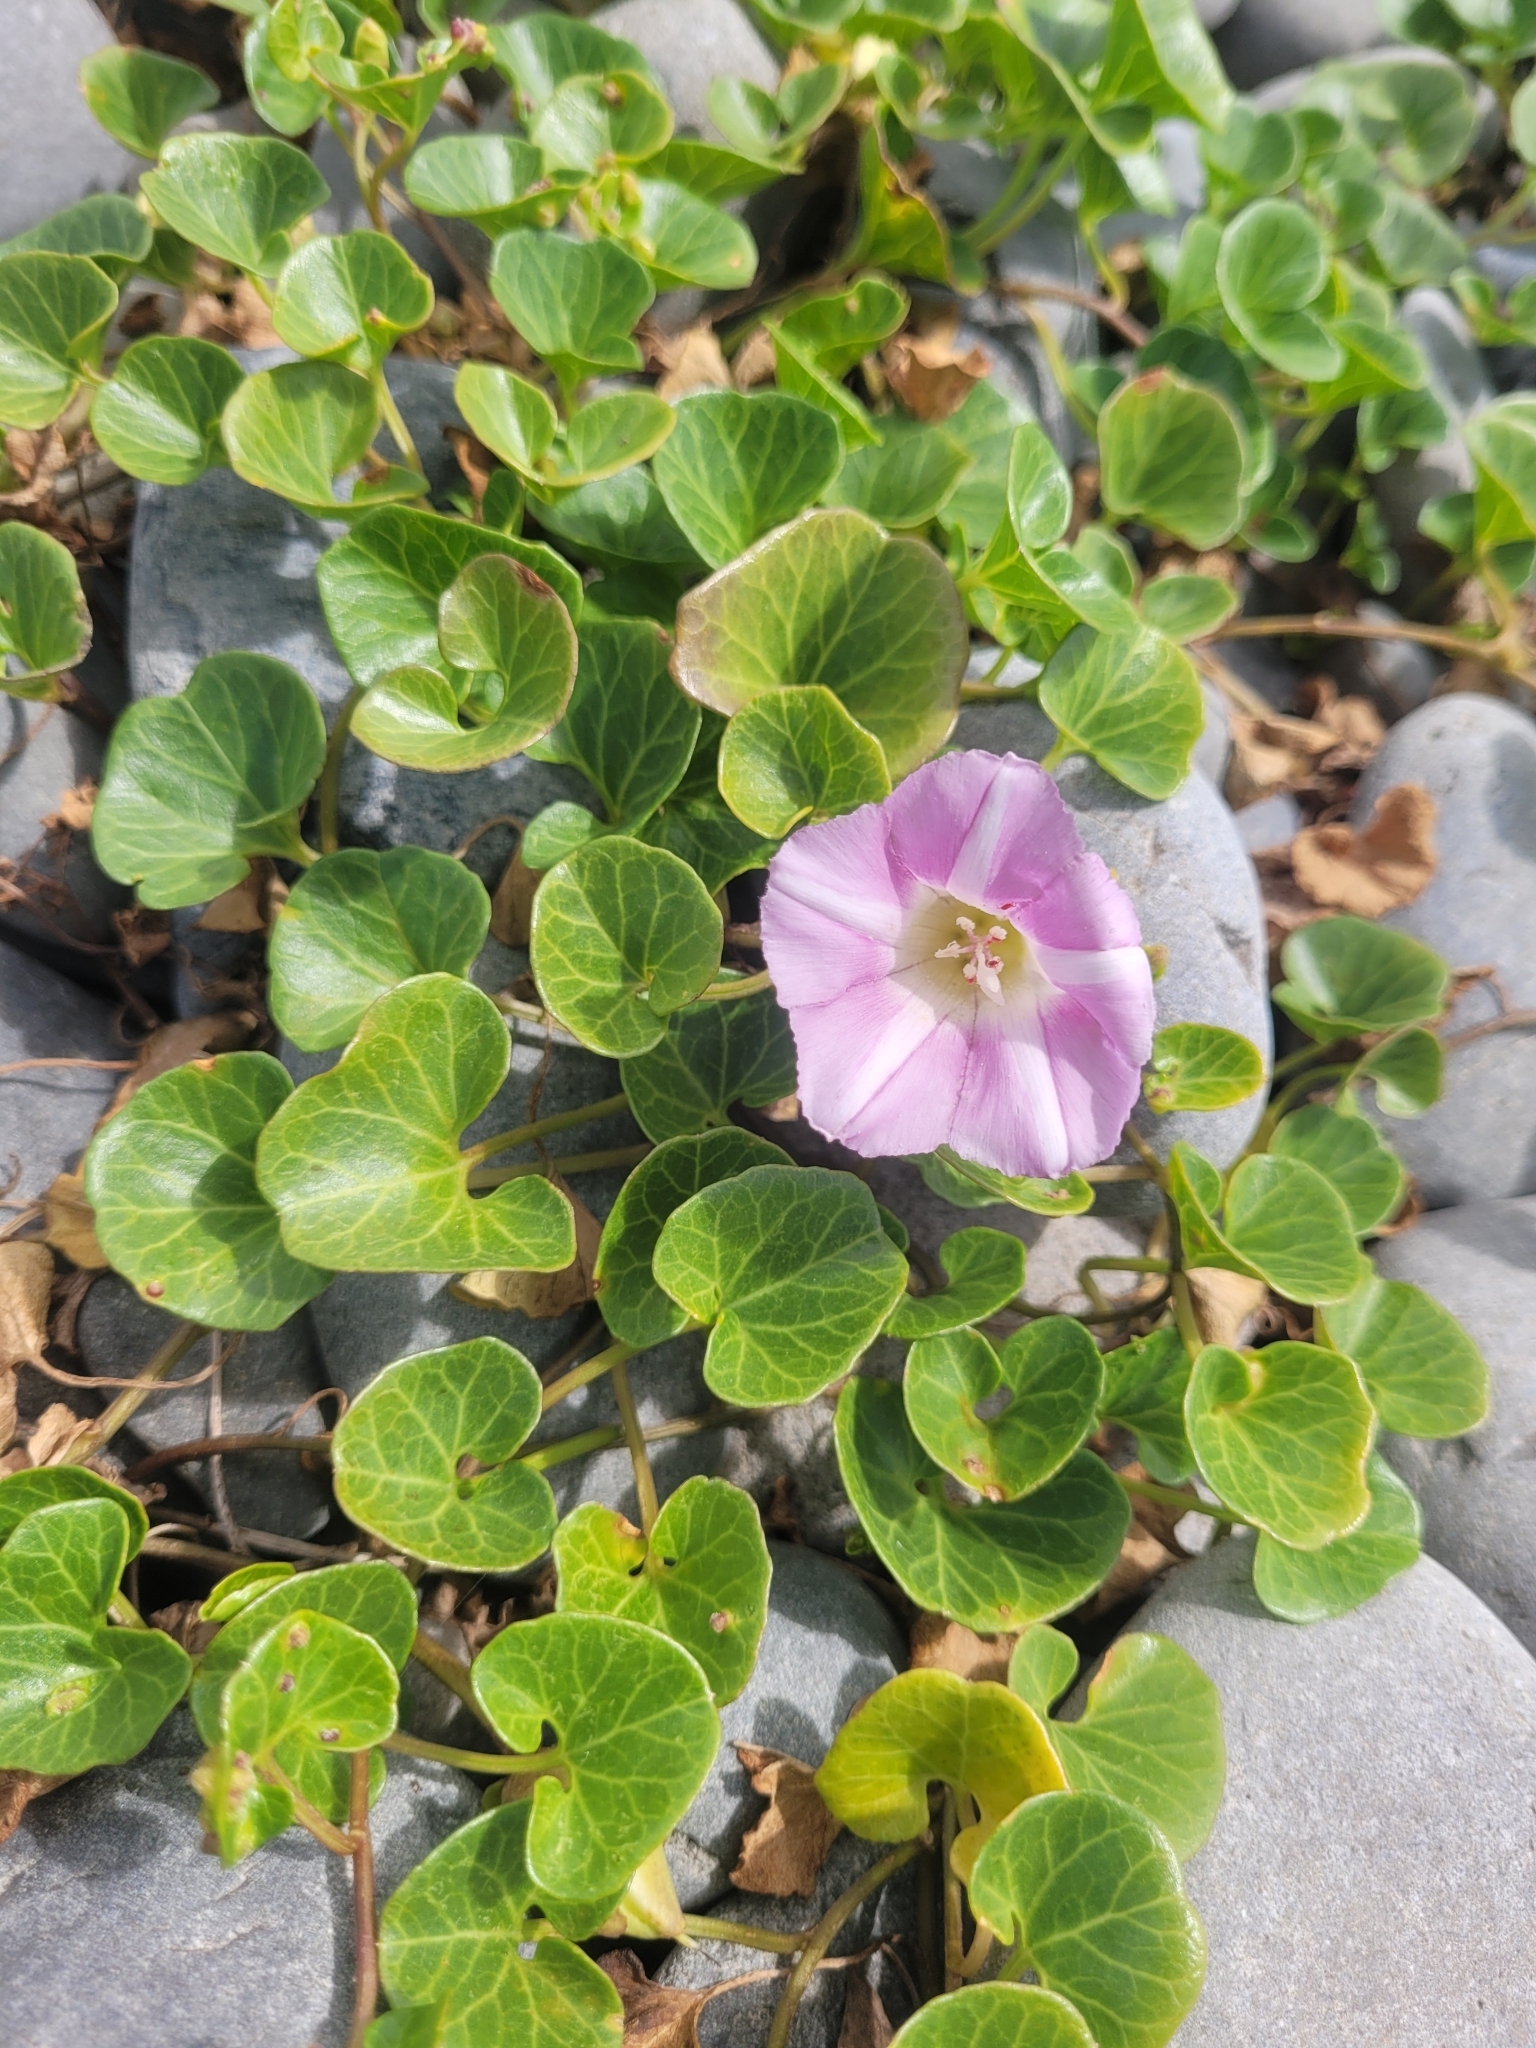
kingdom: Plantae
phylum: Tracheophyta
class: Magnoliopsida
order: Solanales
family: Convolvulaceae
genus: Calystegia
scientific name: Calystegia soldanella
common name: Sea bindweed
